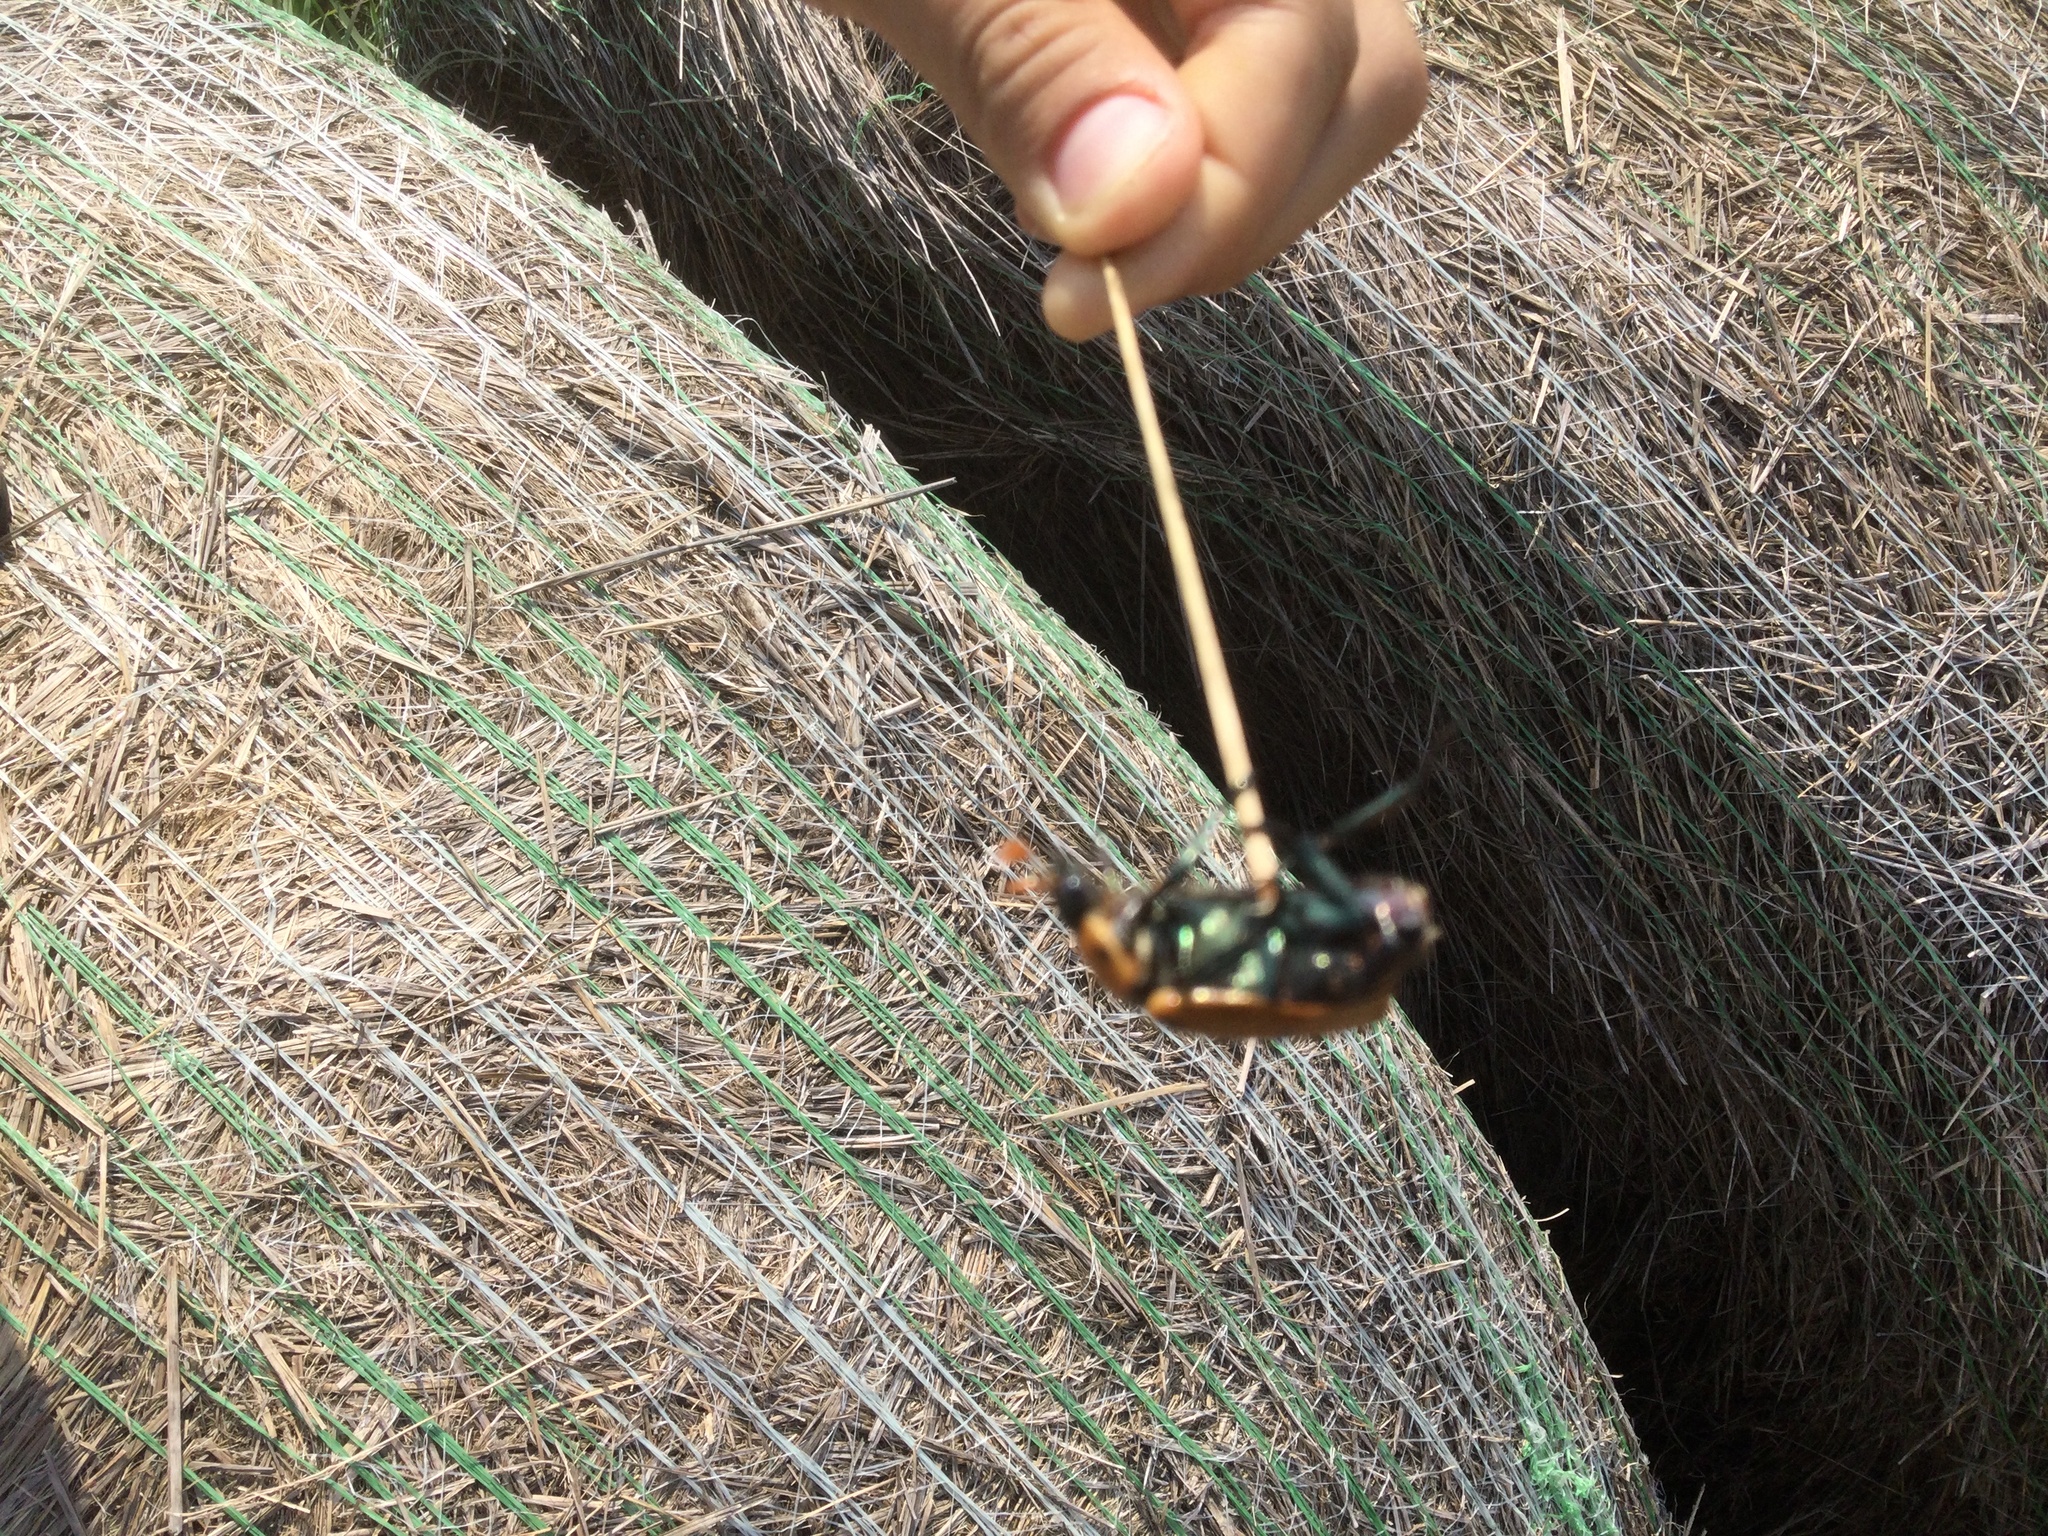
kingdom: Animalia
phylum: Arthropoda
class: Insecta
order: Coleoptera
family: Scarabaeidae
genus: Pelidnota
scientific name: Pelidnota punctata
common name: Grapevine beetle
